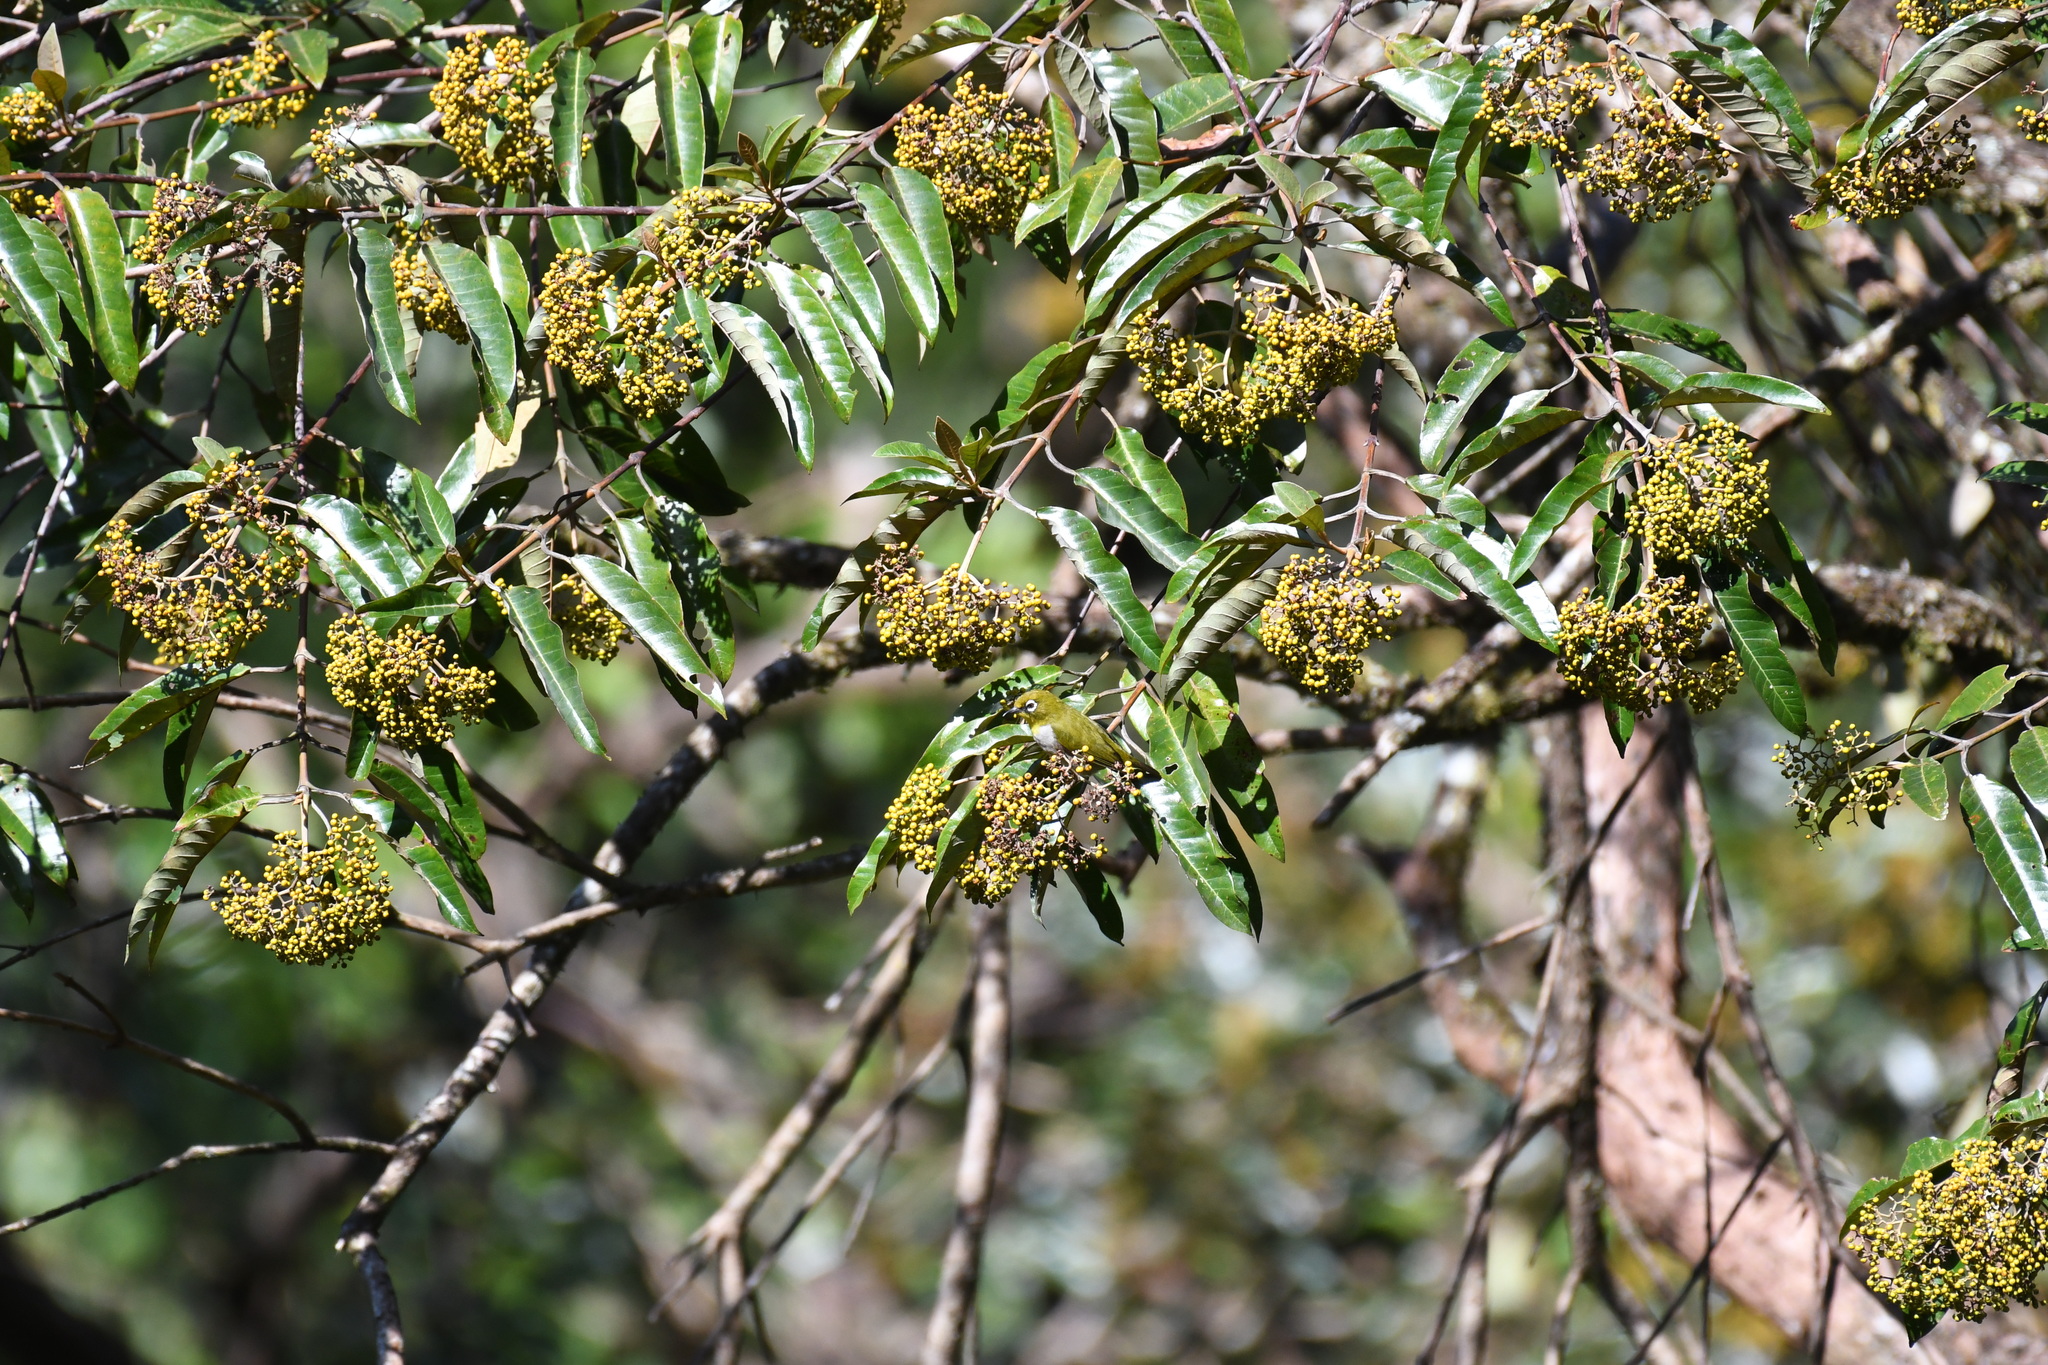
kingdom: Animalia
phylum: Chordata
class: Aves
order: Passeriformes
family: Zosteropidae
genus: Zosterops
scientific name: Zosterops maderaspatanus
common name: Madagascar white-eye
